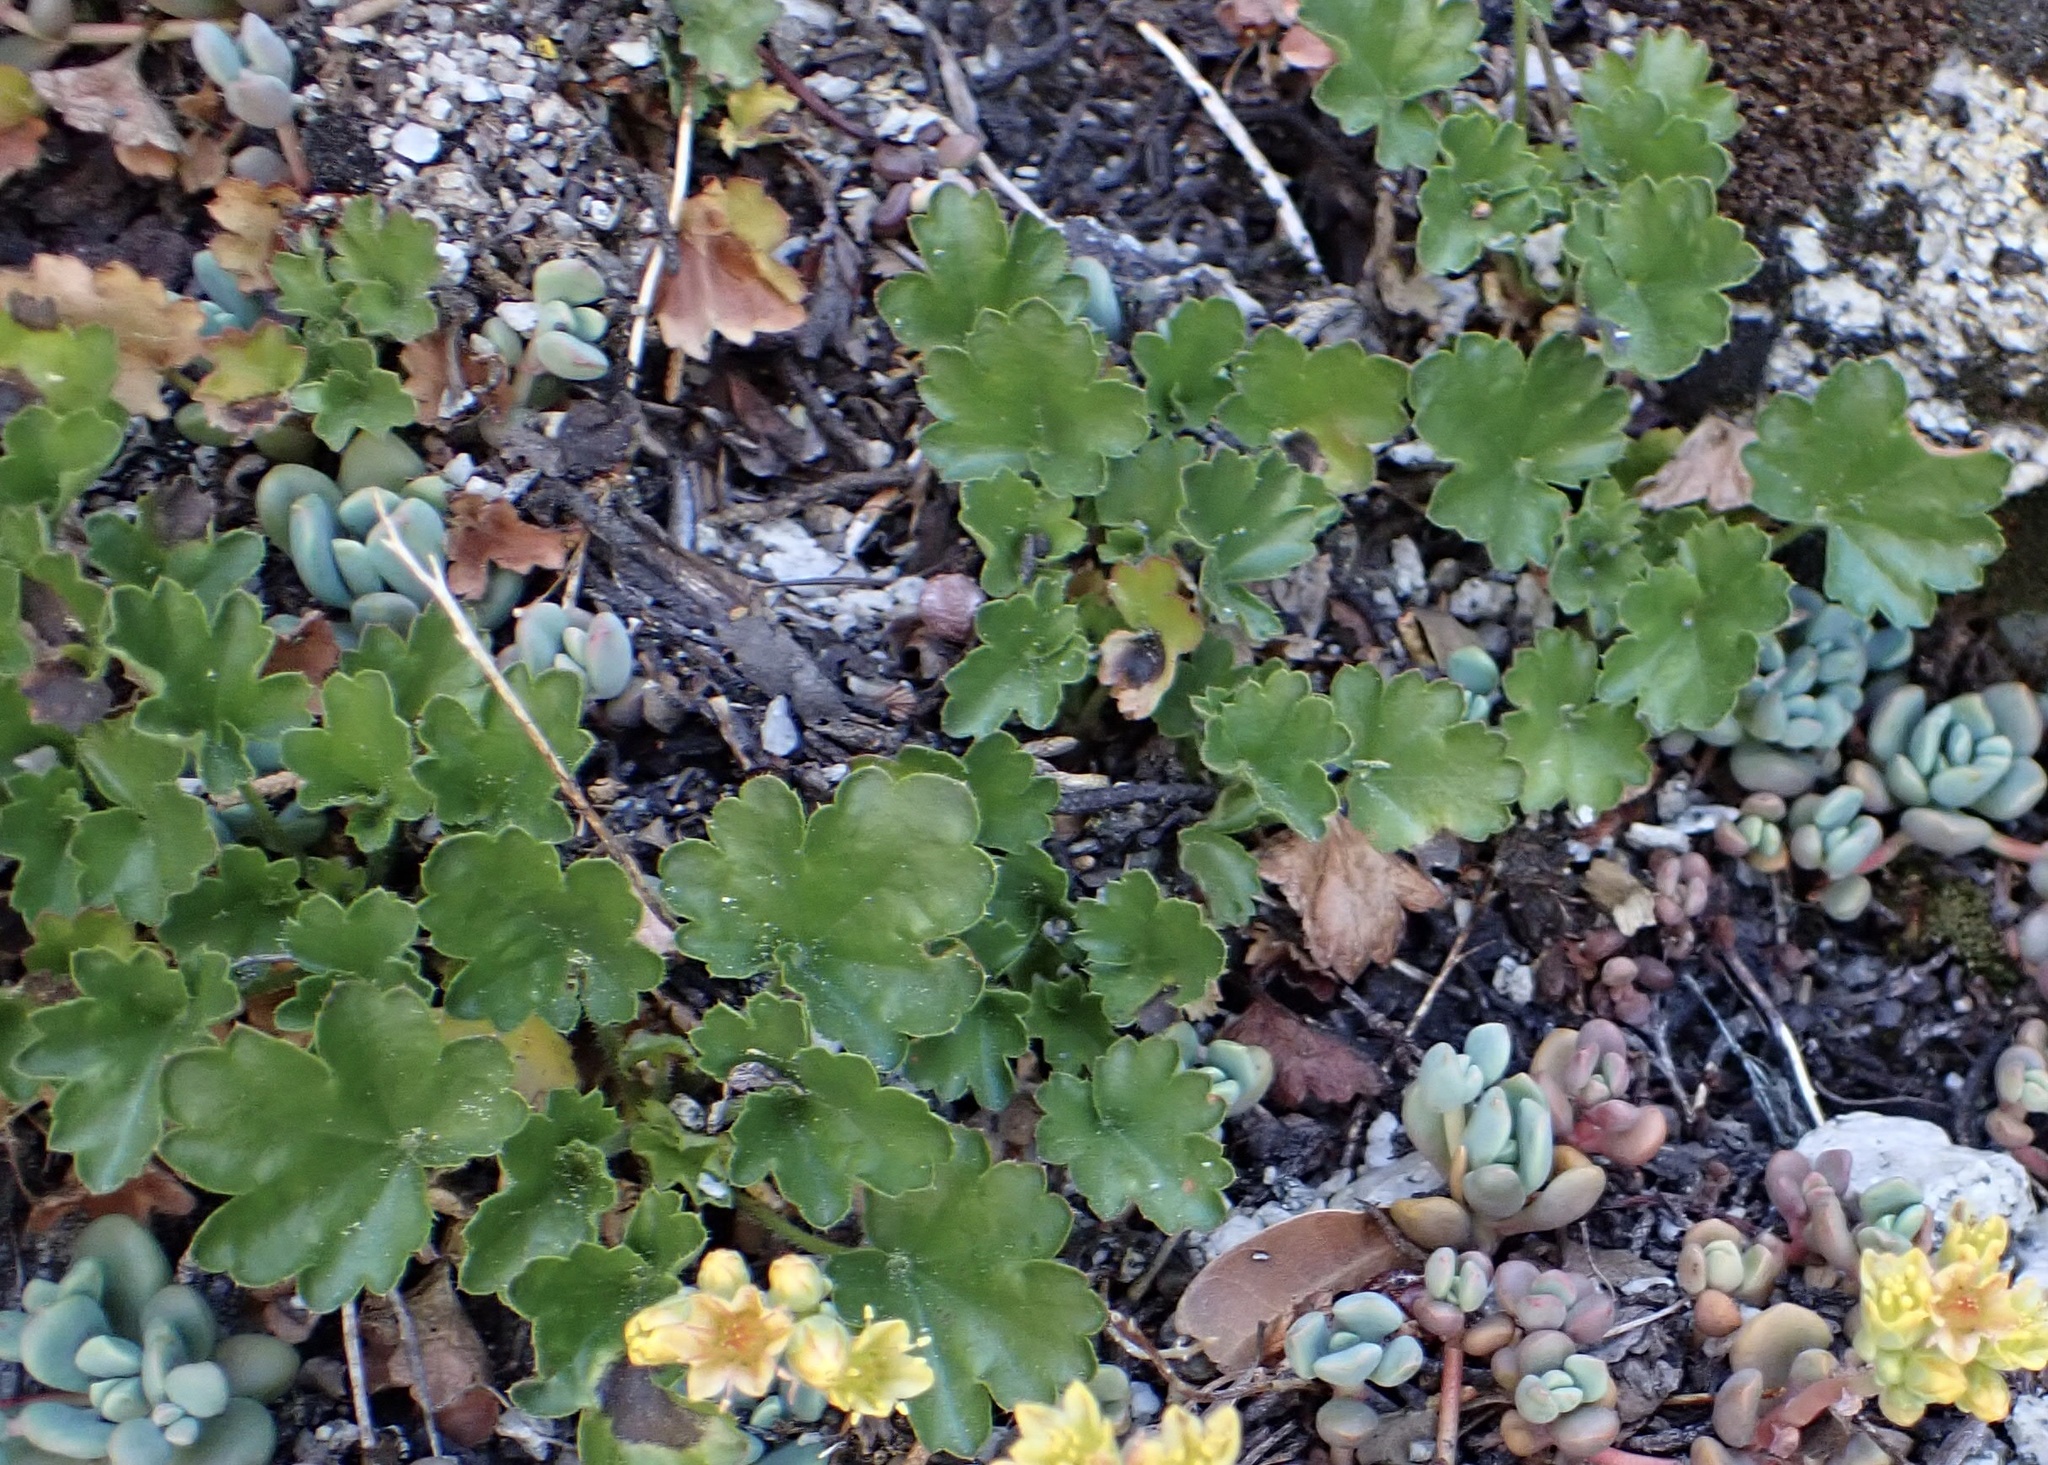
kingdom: Plantae
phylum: Tracheophyta
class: Magnoliopsida
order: Saxifragales
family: Saxifragaceae
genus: Heuchera
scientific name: Heuchera rubescens
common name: Jack-o'the-rocks
